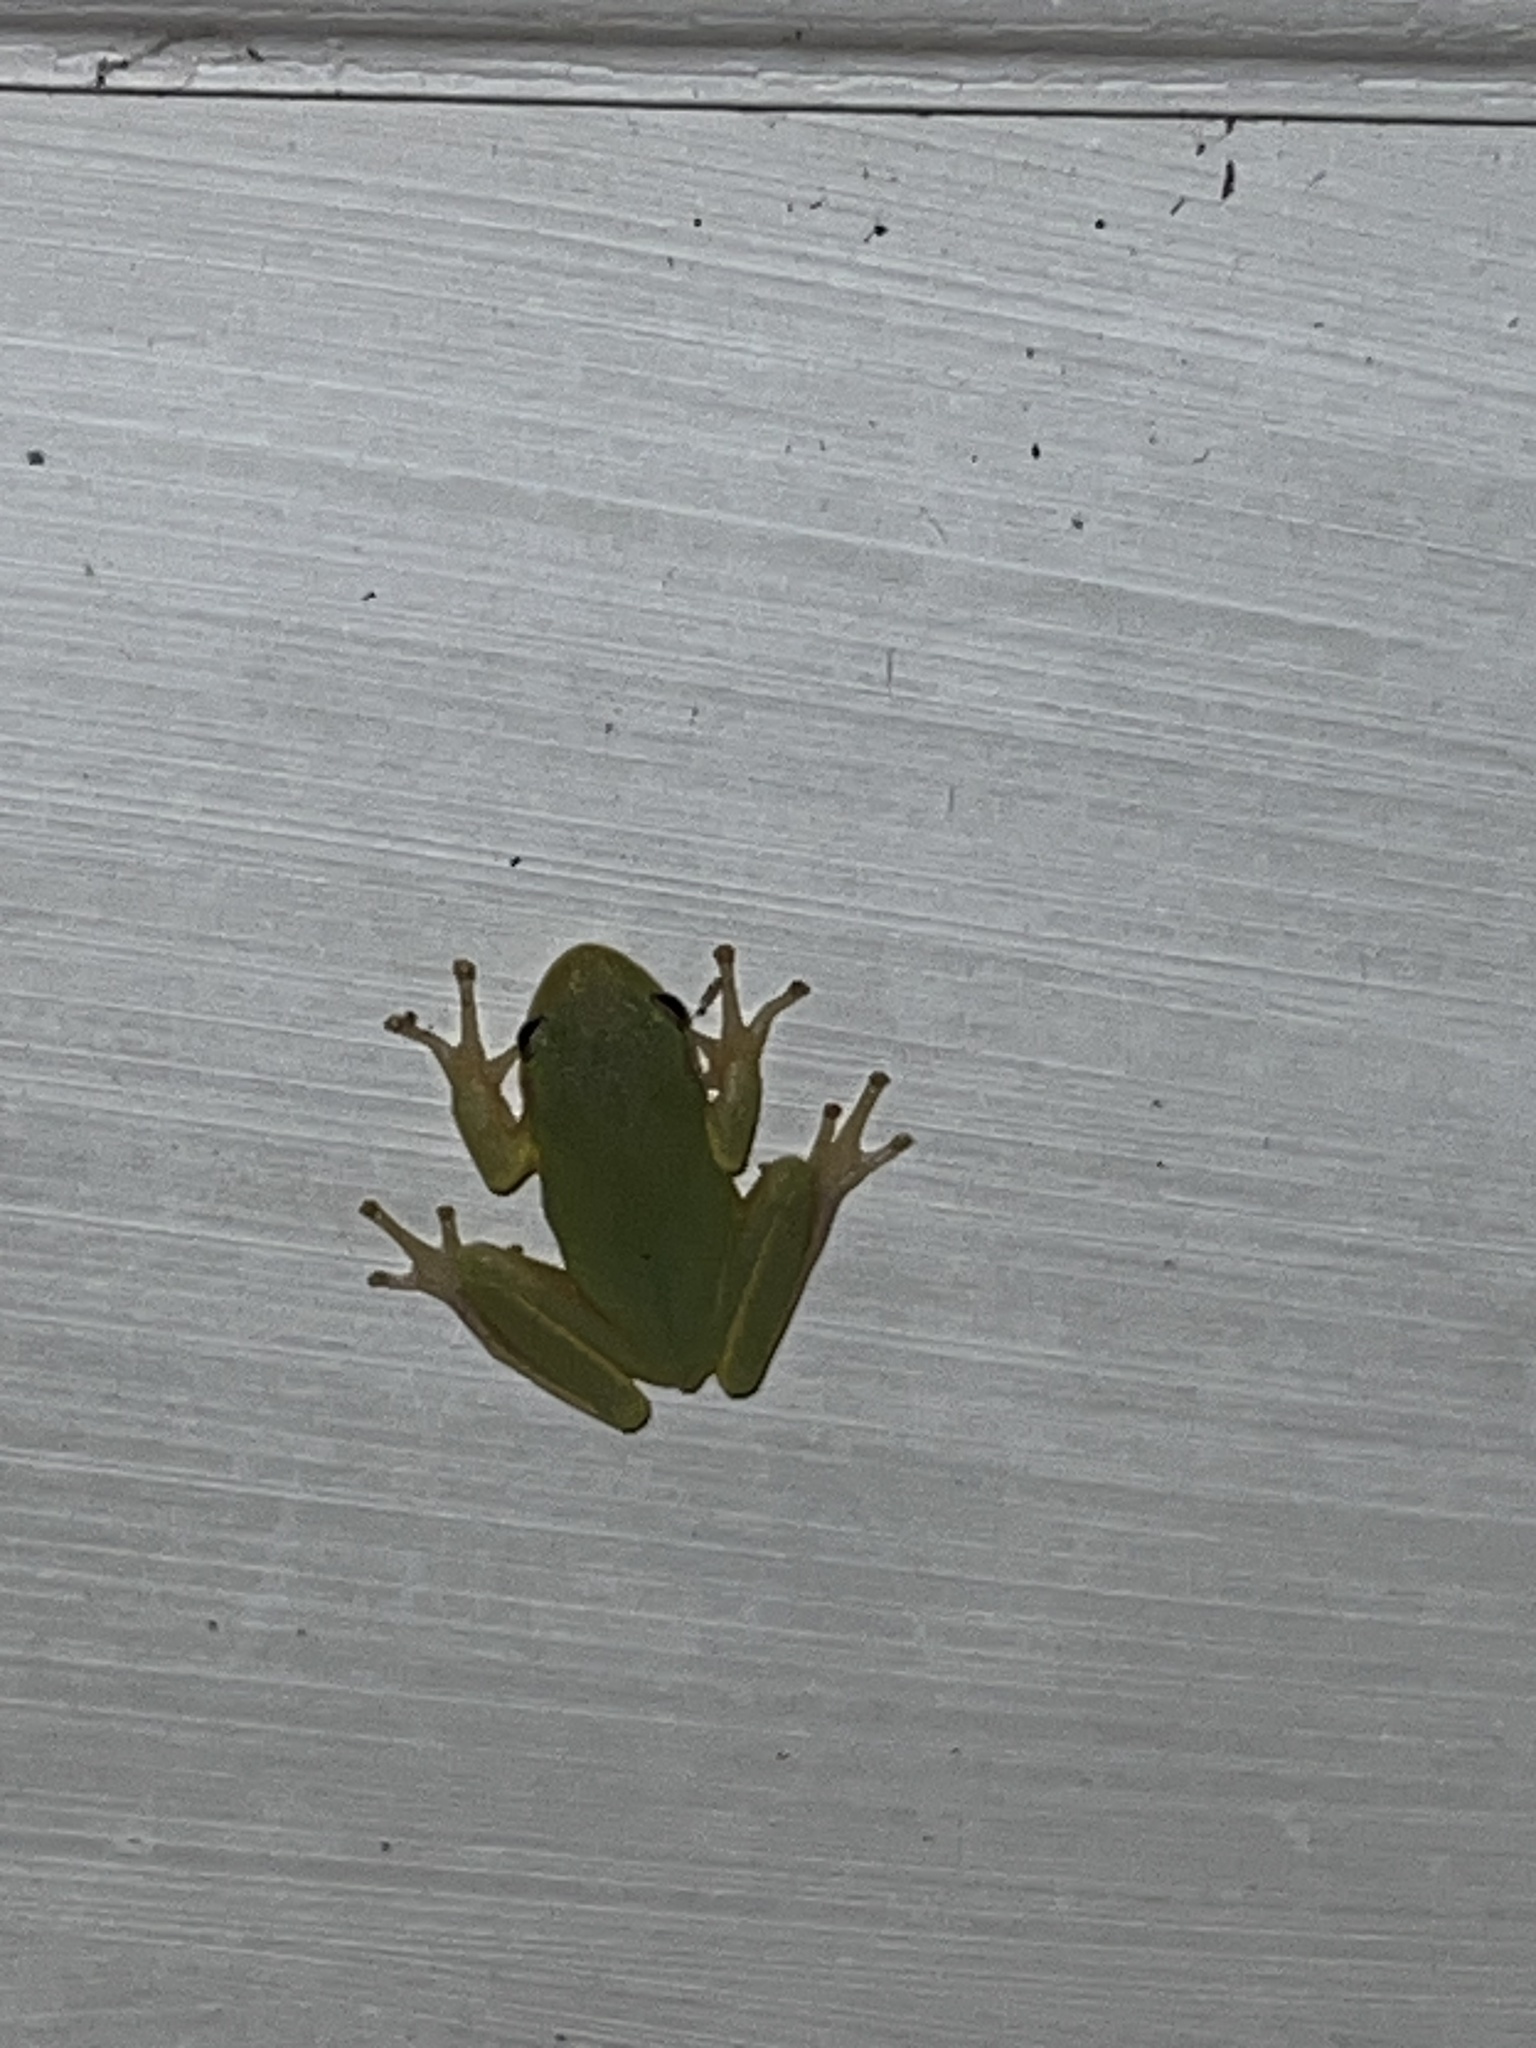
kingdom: Animalia
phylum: Chordata
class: Amphibia
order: Anura
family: Hylidae
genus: Dryophytes
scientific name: Dryophytes squirellus
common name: Squirrel treefrog
